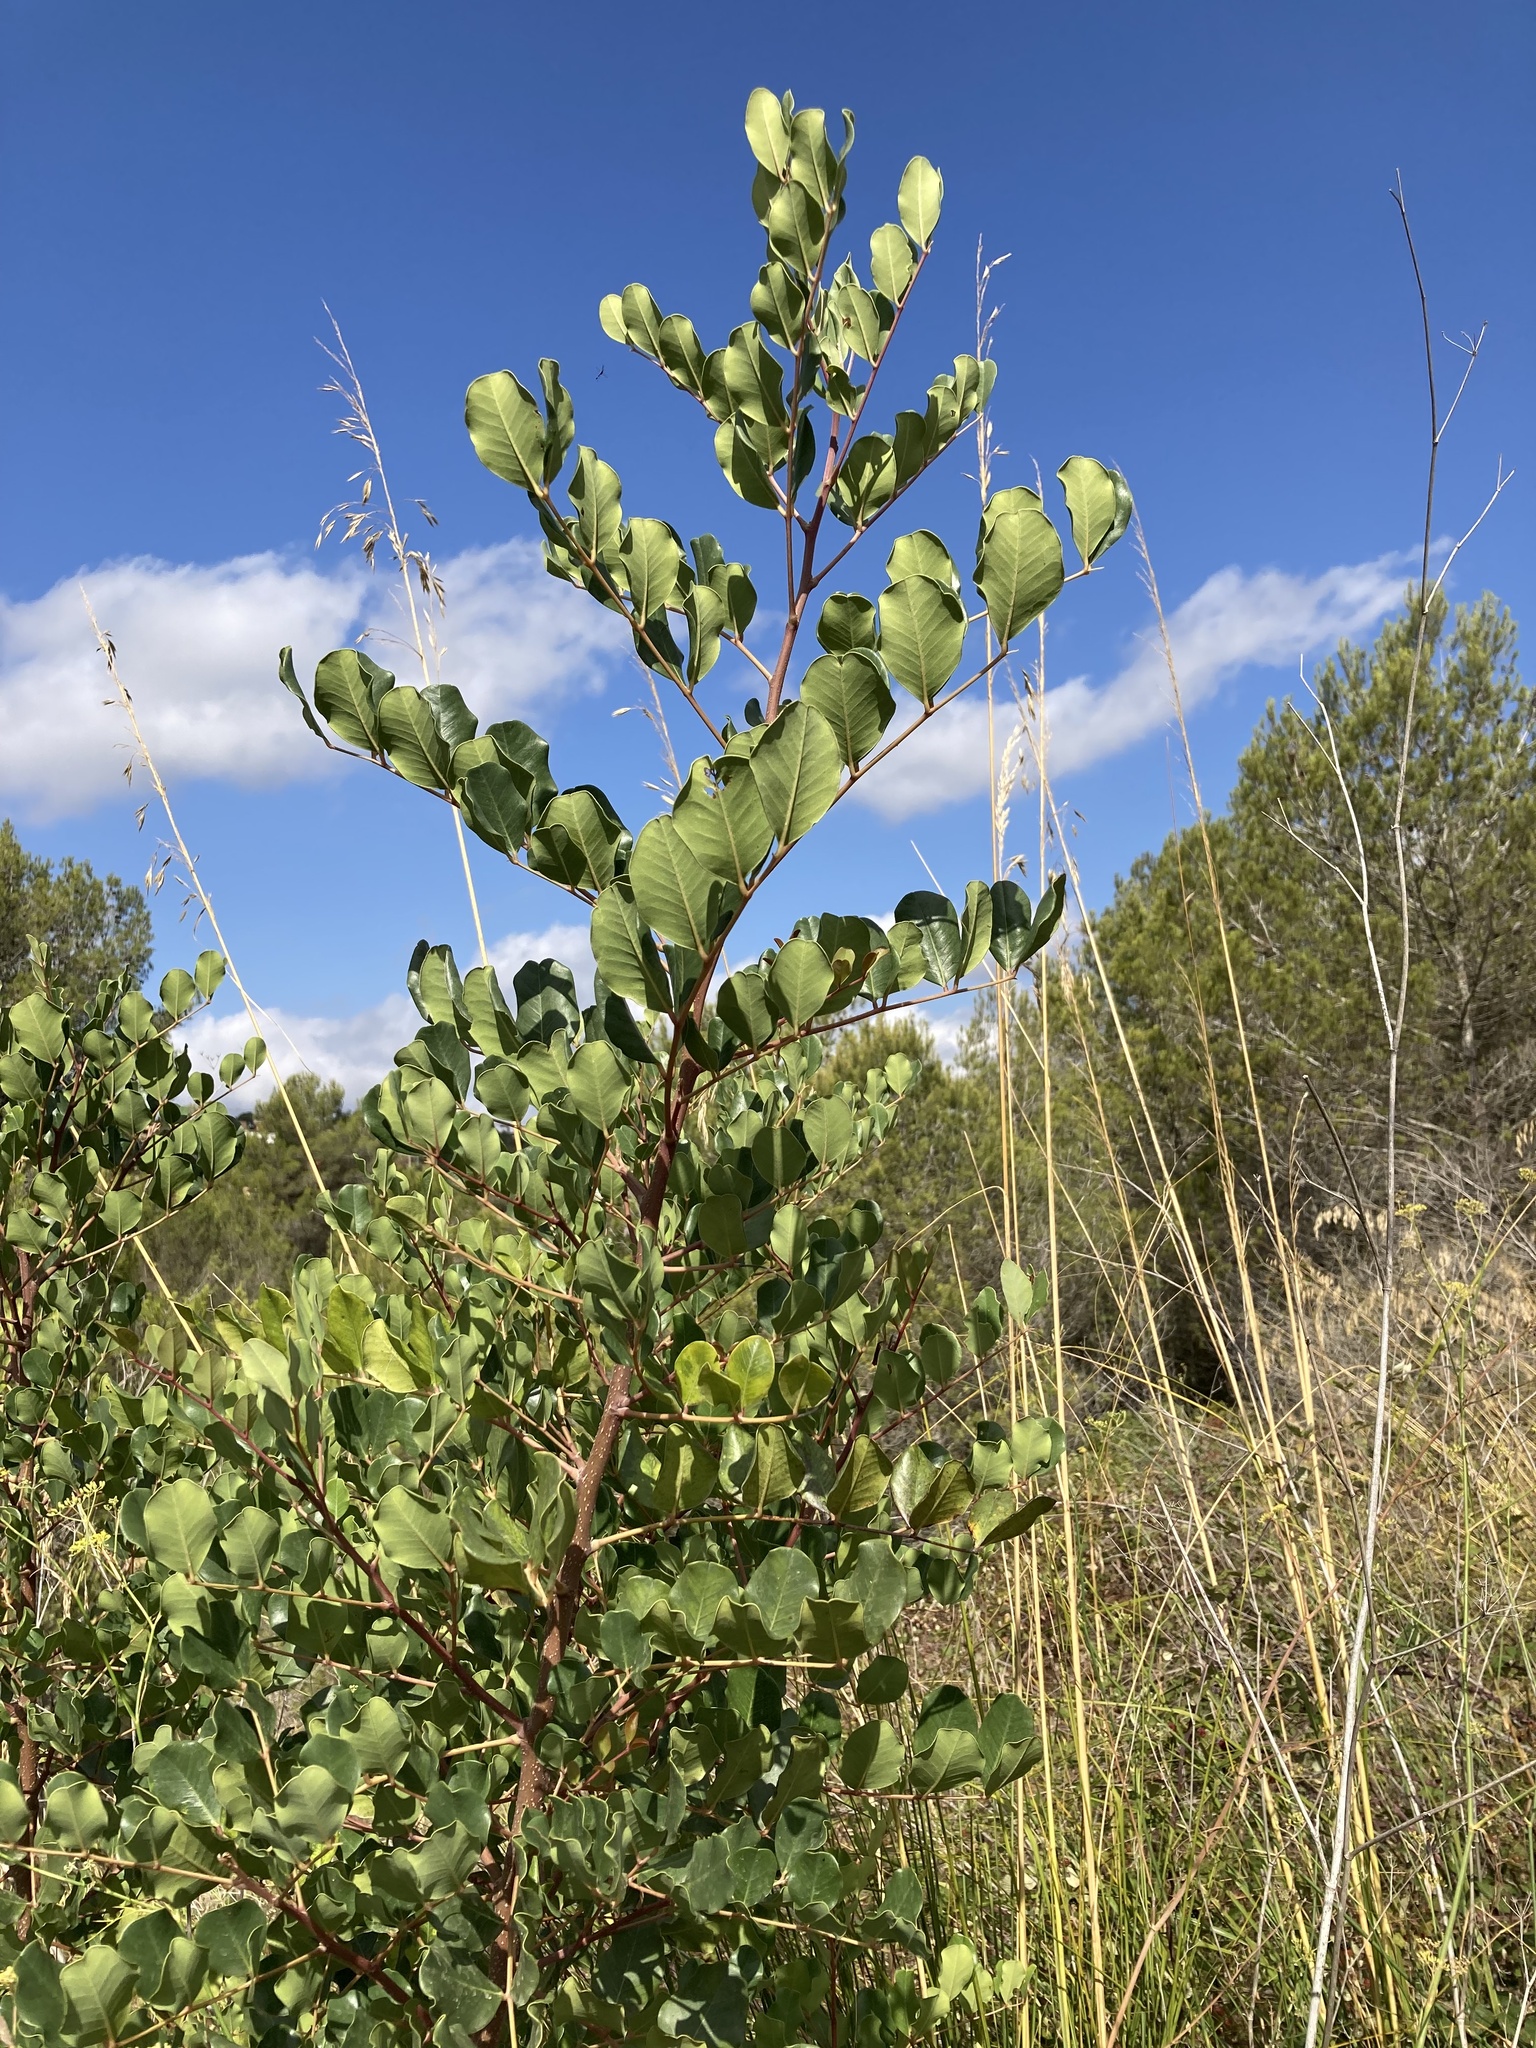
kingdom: Plantae
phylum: Tracheophyta
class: Magnoliopsida
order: Fabales
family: Fabaceae
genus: Ceratonia
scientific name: Ceratonia siliqua
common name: Carob
